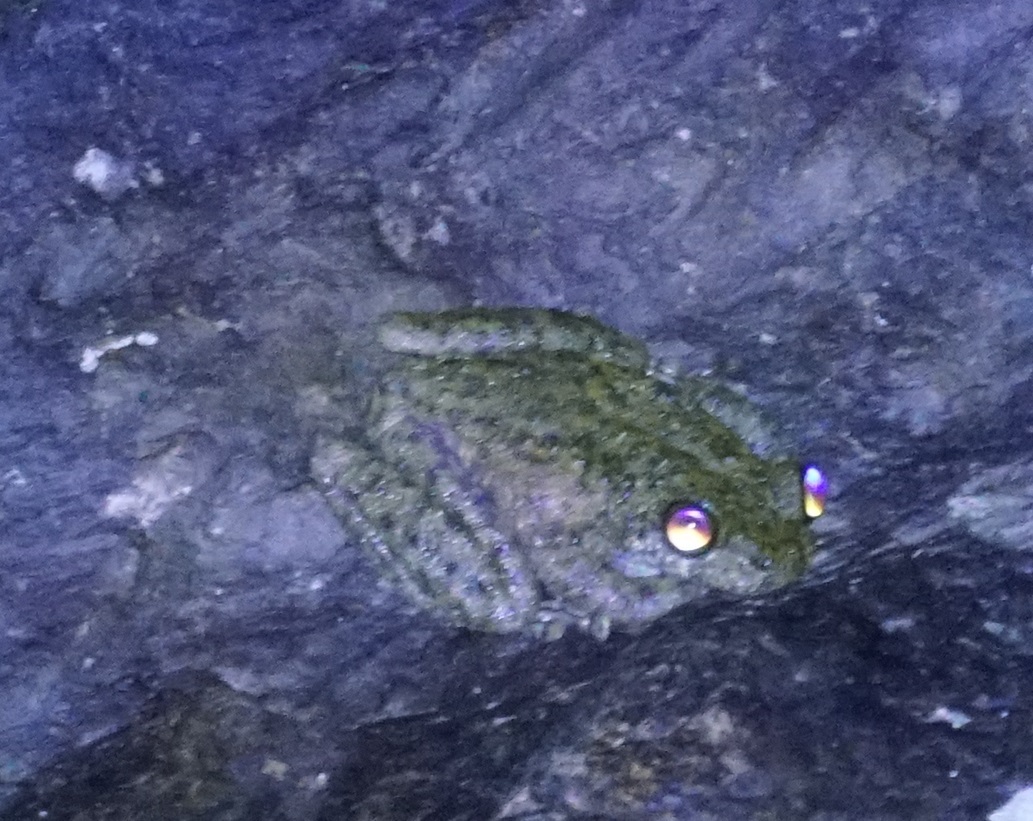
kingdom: Animalia
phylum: Chordata
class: Amphibia
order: Anura
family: Pelodryadidae
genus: Ranoidea
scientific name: Ranoidea nannotis
